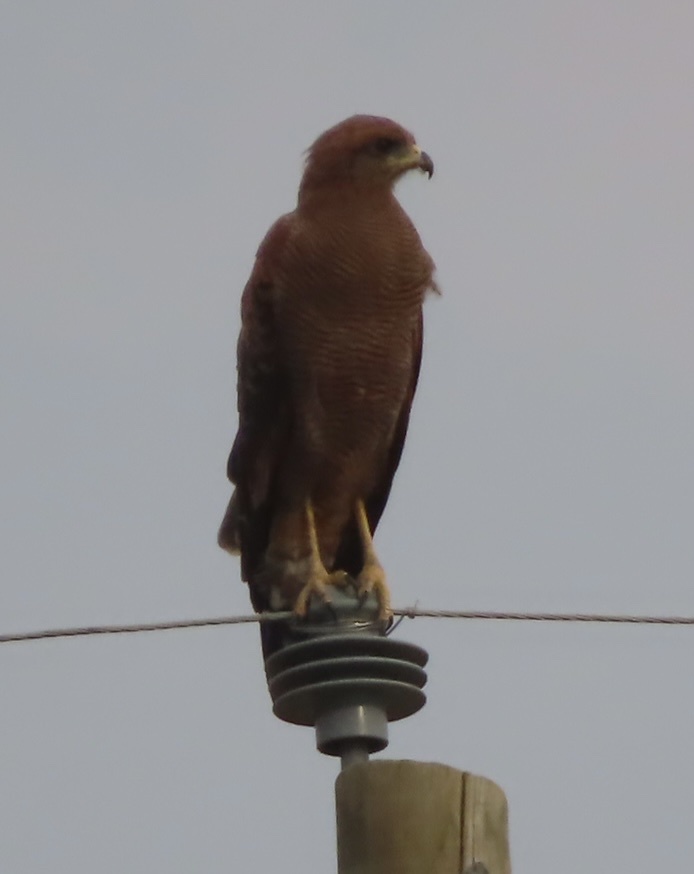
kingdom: Animalia
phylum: Chordata
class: Aves
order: Accipitriformes
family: Accipitridae
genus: Buteogallus
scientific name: Buteogallus meridionalis
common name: Savanna hawk
